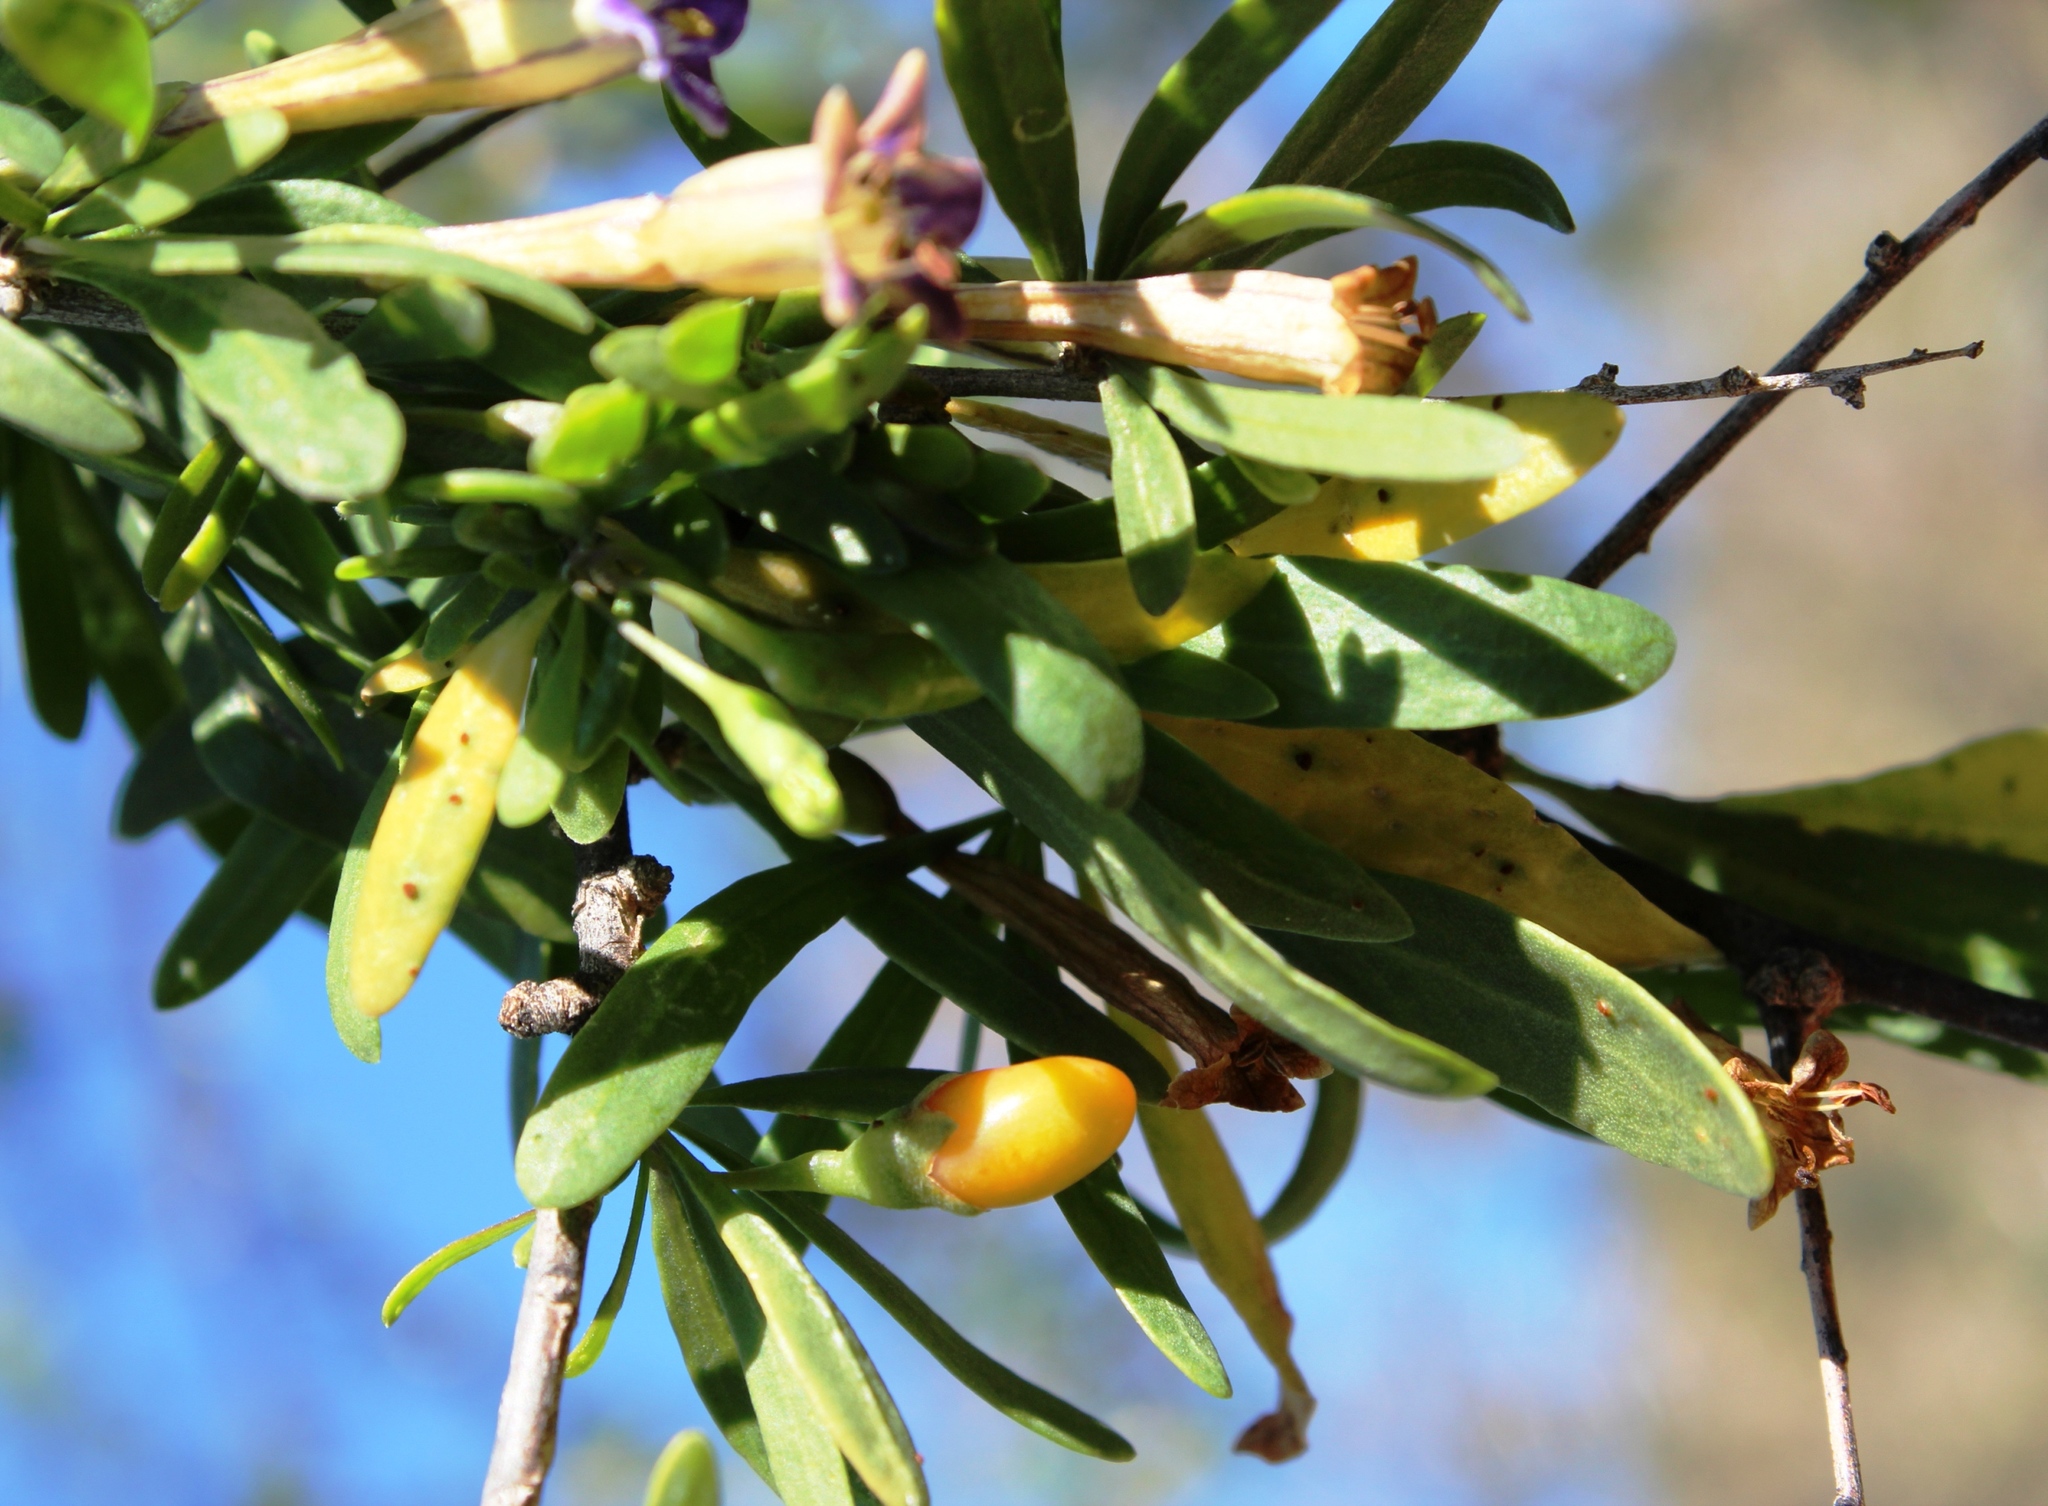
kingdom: Plantae
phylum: Tracheophyta
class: Magnoliopsida
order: Solanales
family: Solanaceae
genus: Lycium
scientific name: Lycium oxycarpum
